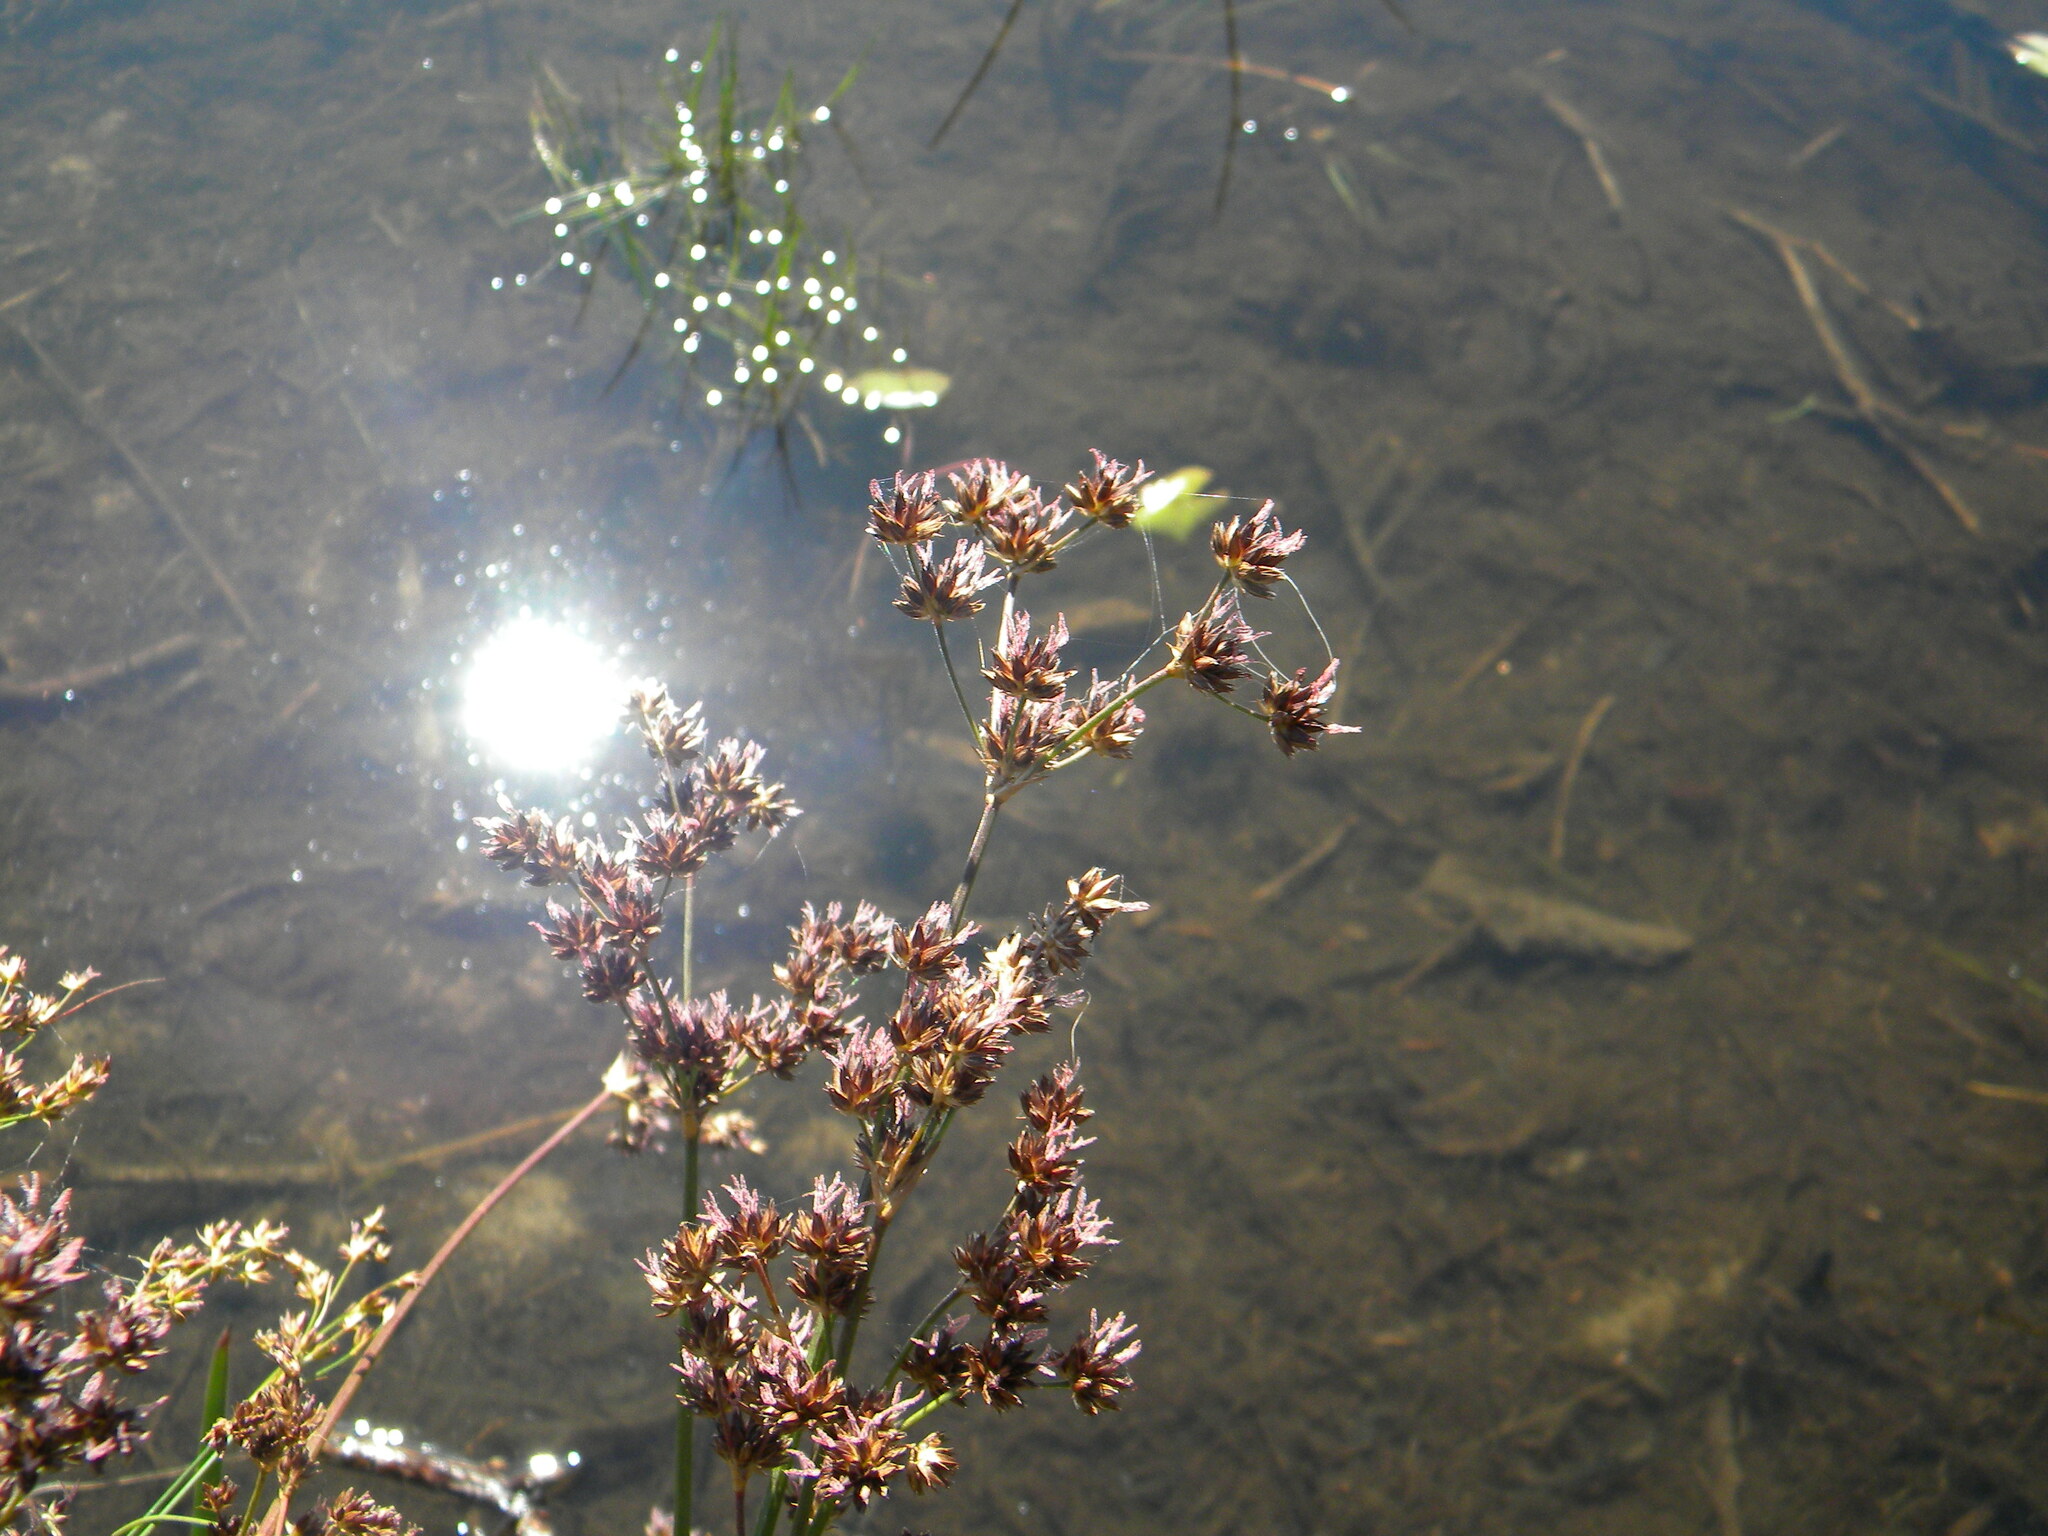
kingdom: Plantae
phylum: Tracheophyta
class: Liliopsida
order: Poales
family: Juncaceae
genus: Juncus
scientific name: Juncus lomatophyllus
